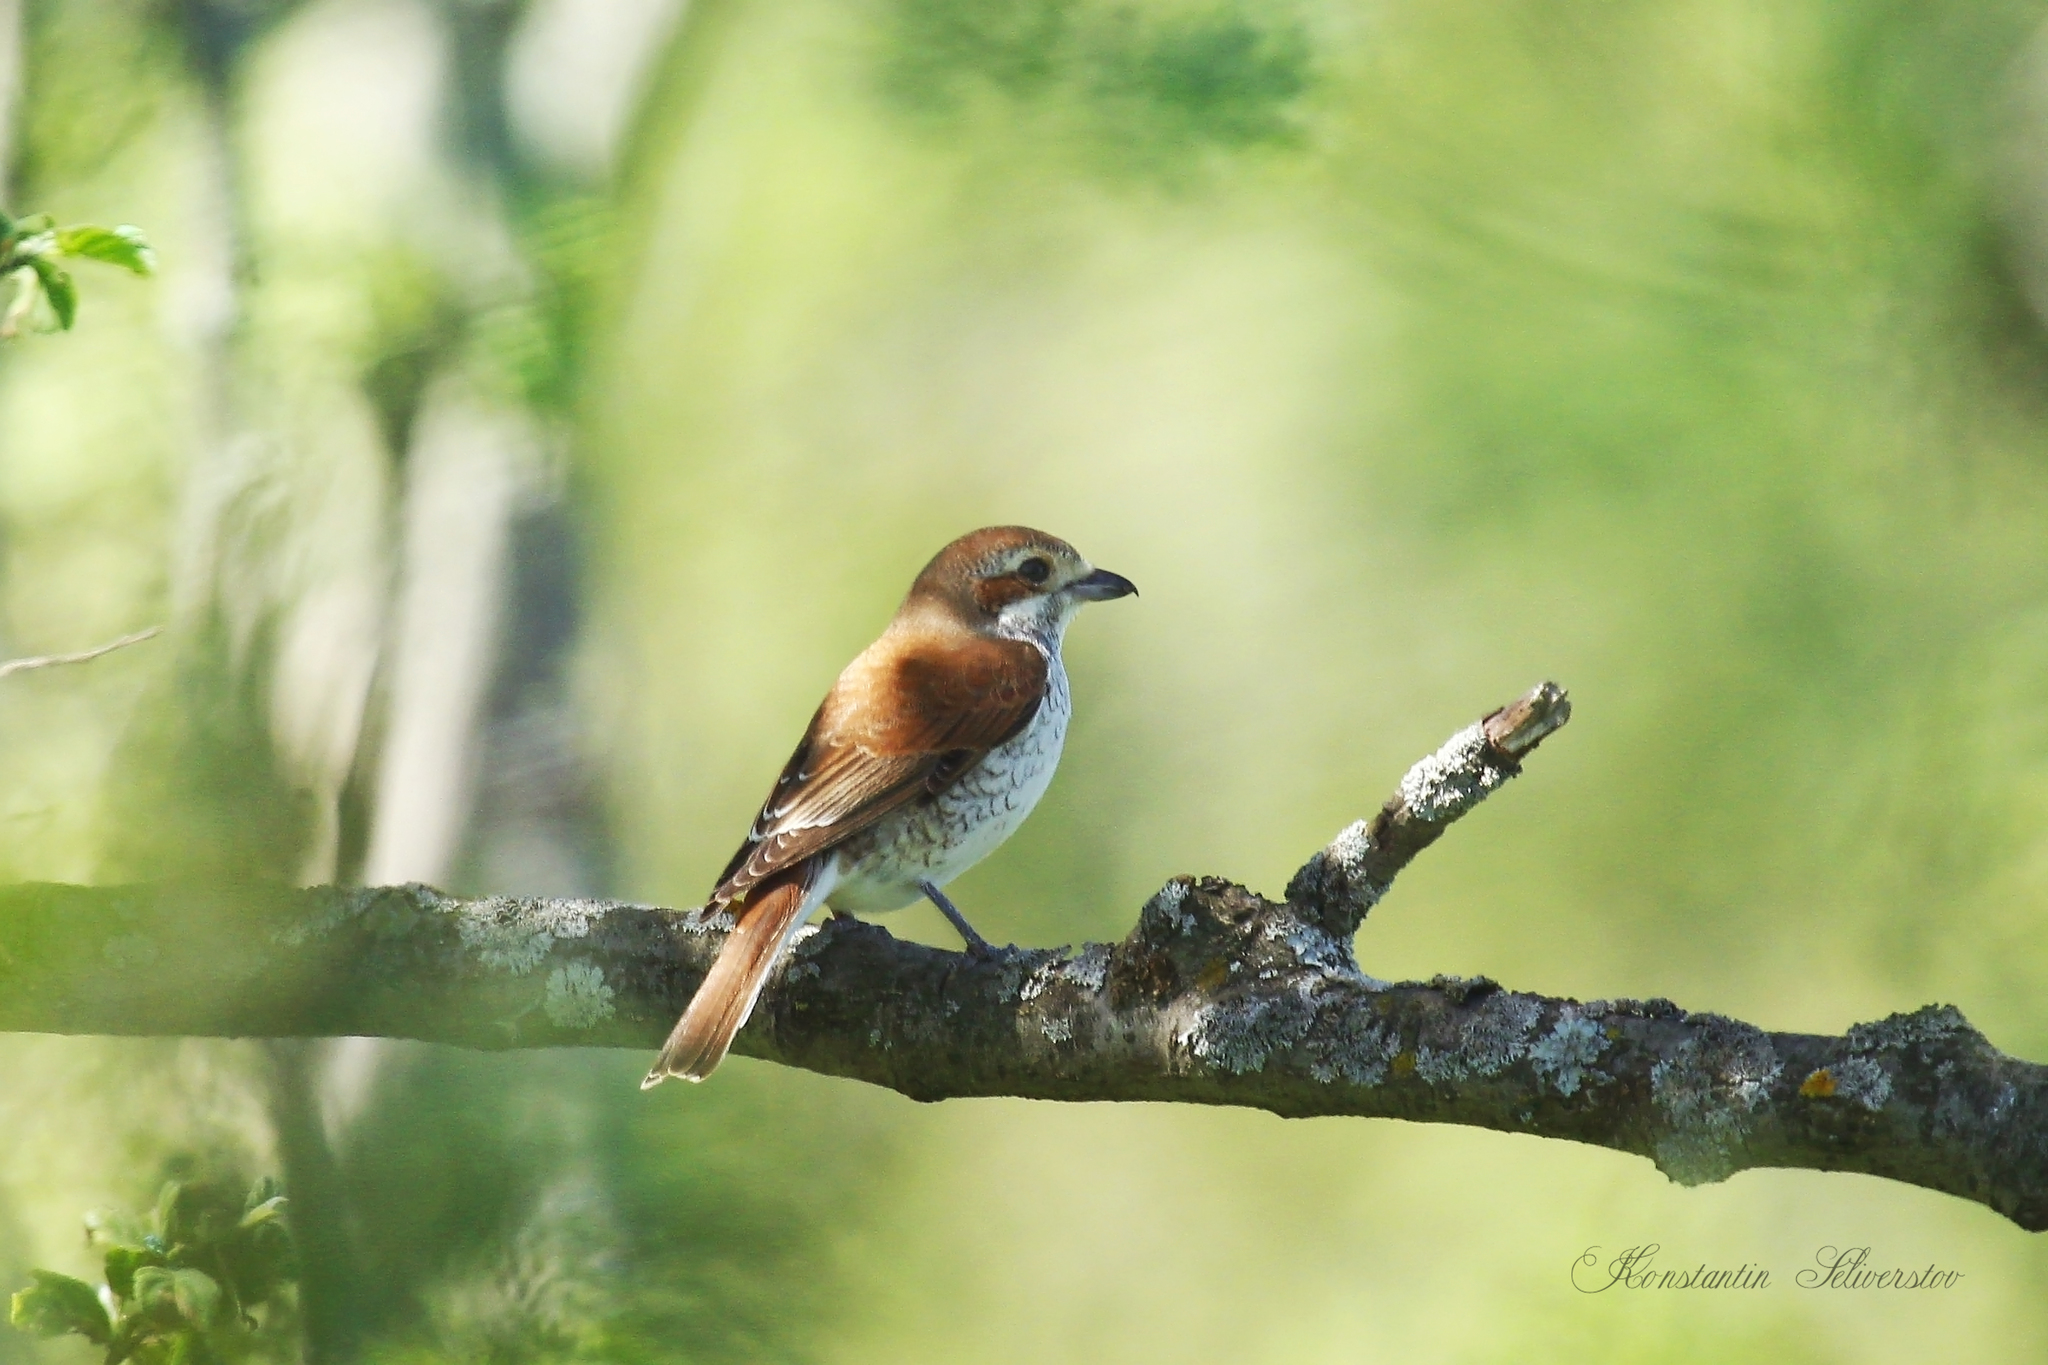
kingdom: Animalia
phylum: Chordata
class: Aves
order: Passeriformes
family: Laniidae
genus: Lanius
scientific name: Lanius collurio
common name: Red-backed shrike
